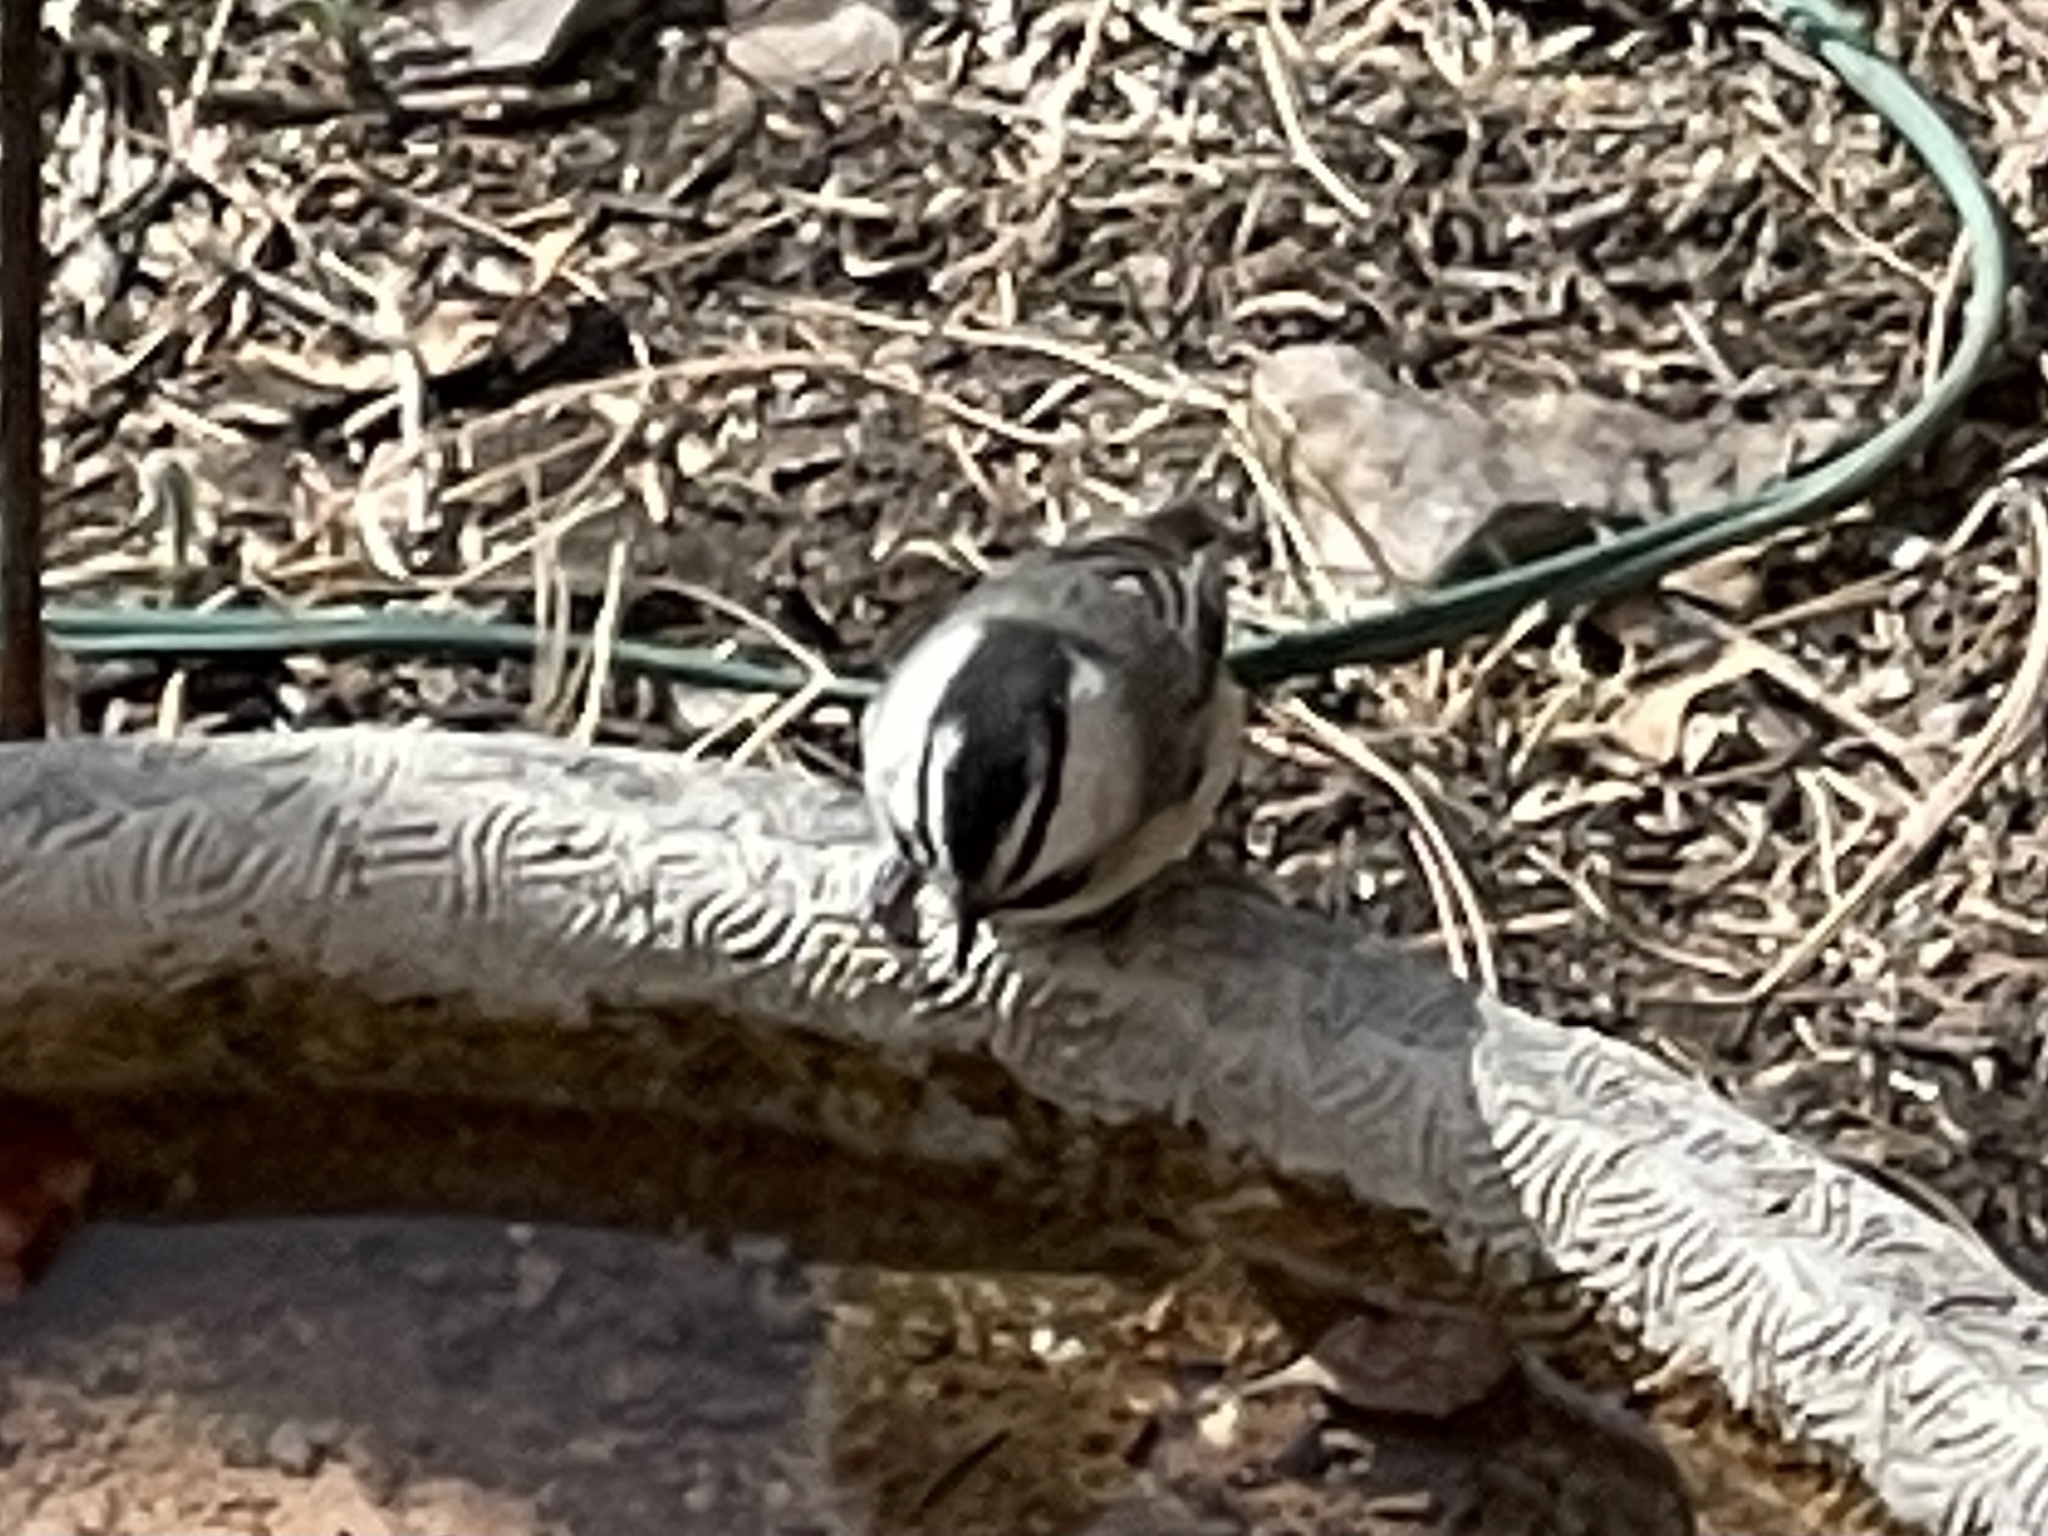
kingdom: Animalia
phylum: Chordata
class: Aves
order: Passeriformes
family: Paridae
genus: Poecile
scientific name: Poecile gambeli
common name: Mountain chickadee
